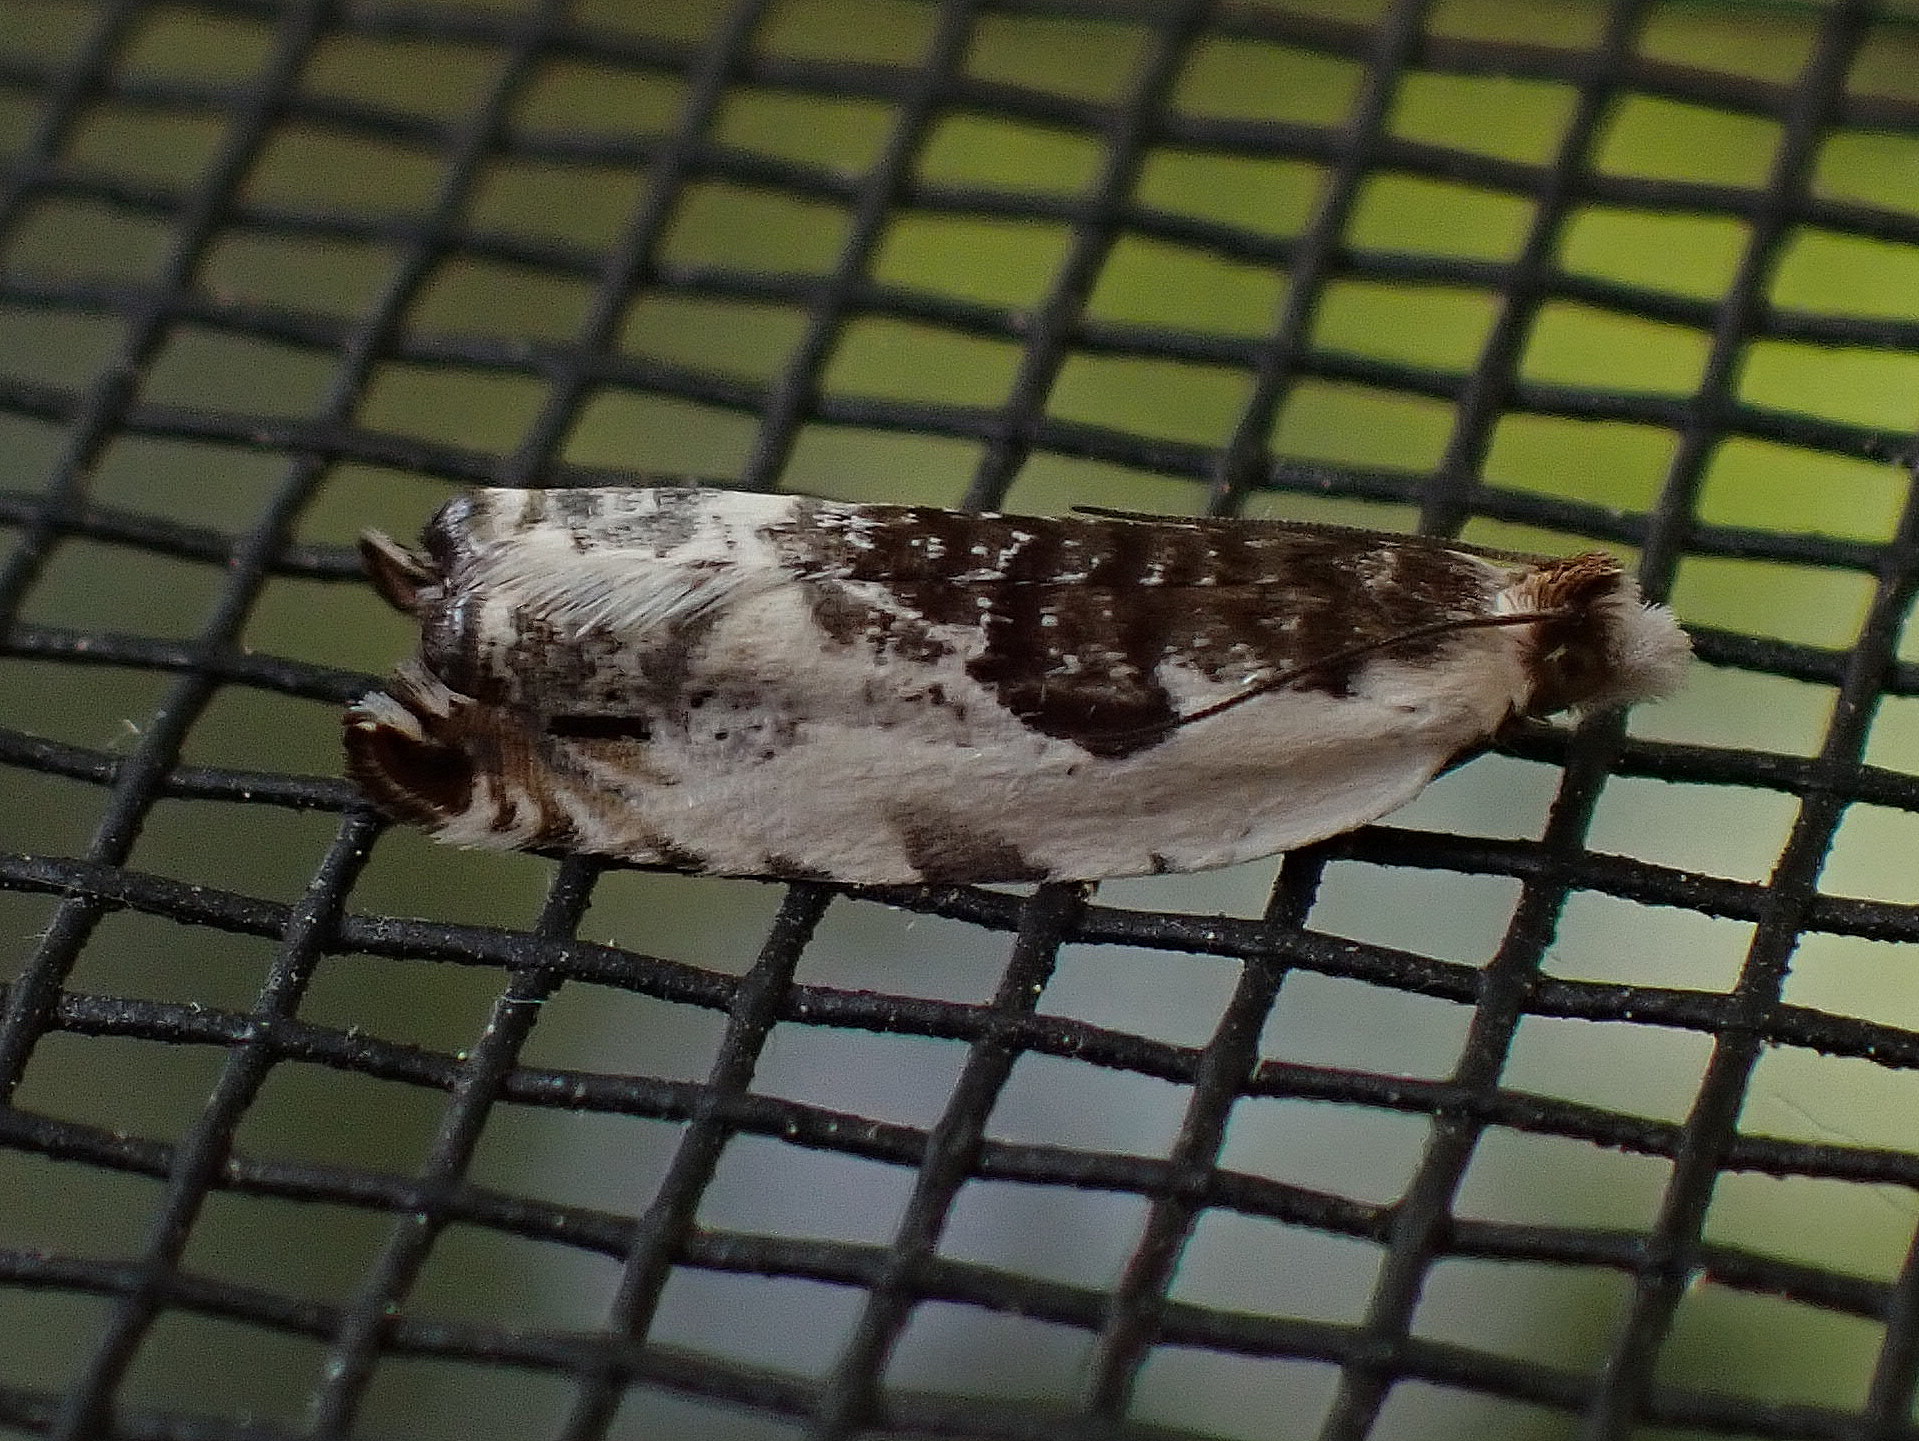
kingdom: Animalia
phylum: Arthropoda
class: Insecta
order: Lepidoptera
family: Tortricidae
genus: Ancylis
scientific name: Ancylis nubeculana
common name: Little cloud ancylis moth
